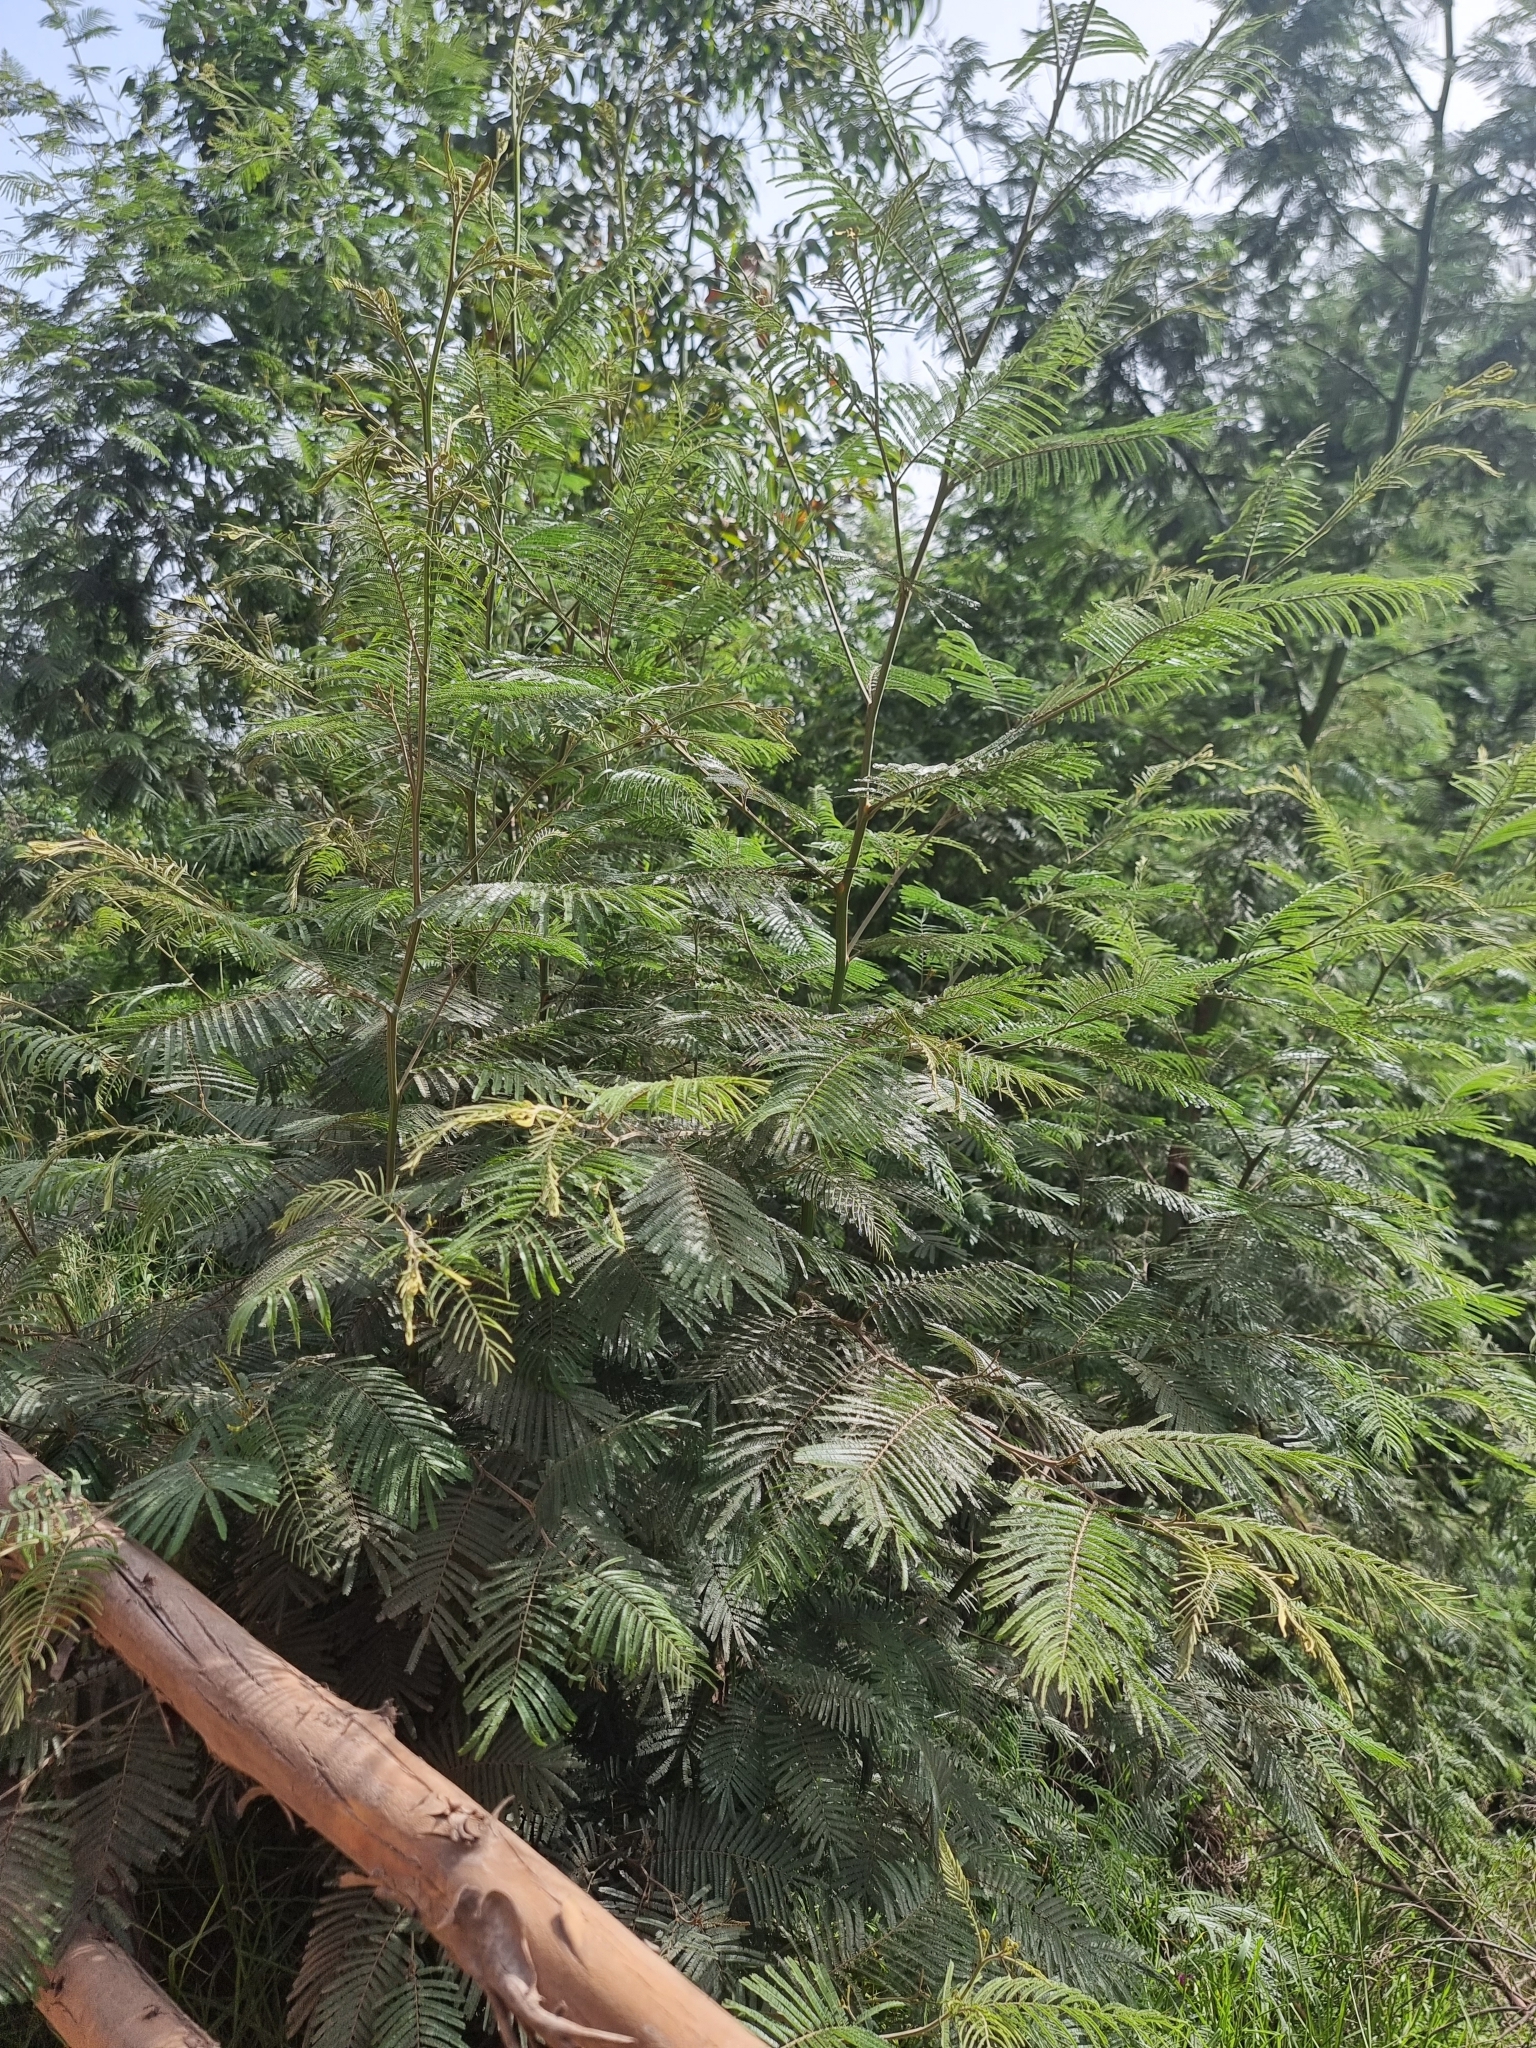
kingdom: Plantae
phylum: Tracheophyta
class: Magnoliopsida
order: Fabales
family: Fabaceae
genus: Acacia
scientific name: Acacia mearnsii
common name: Black wattle
